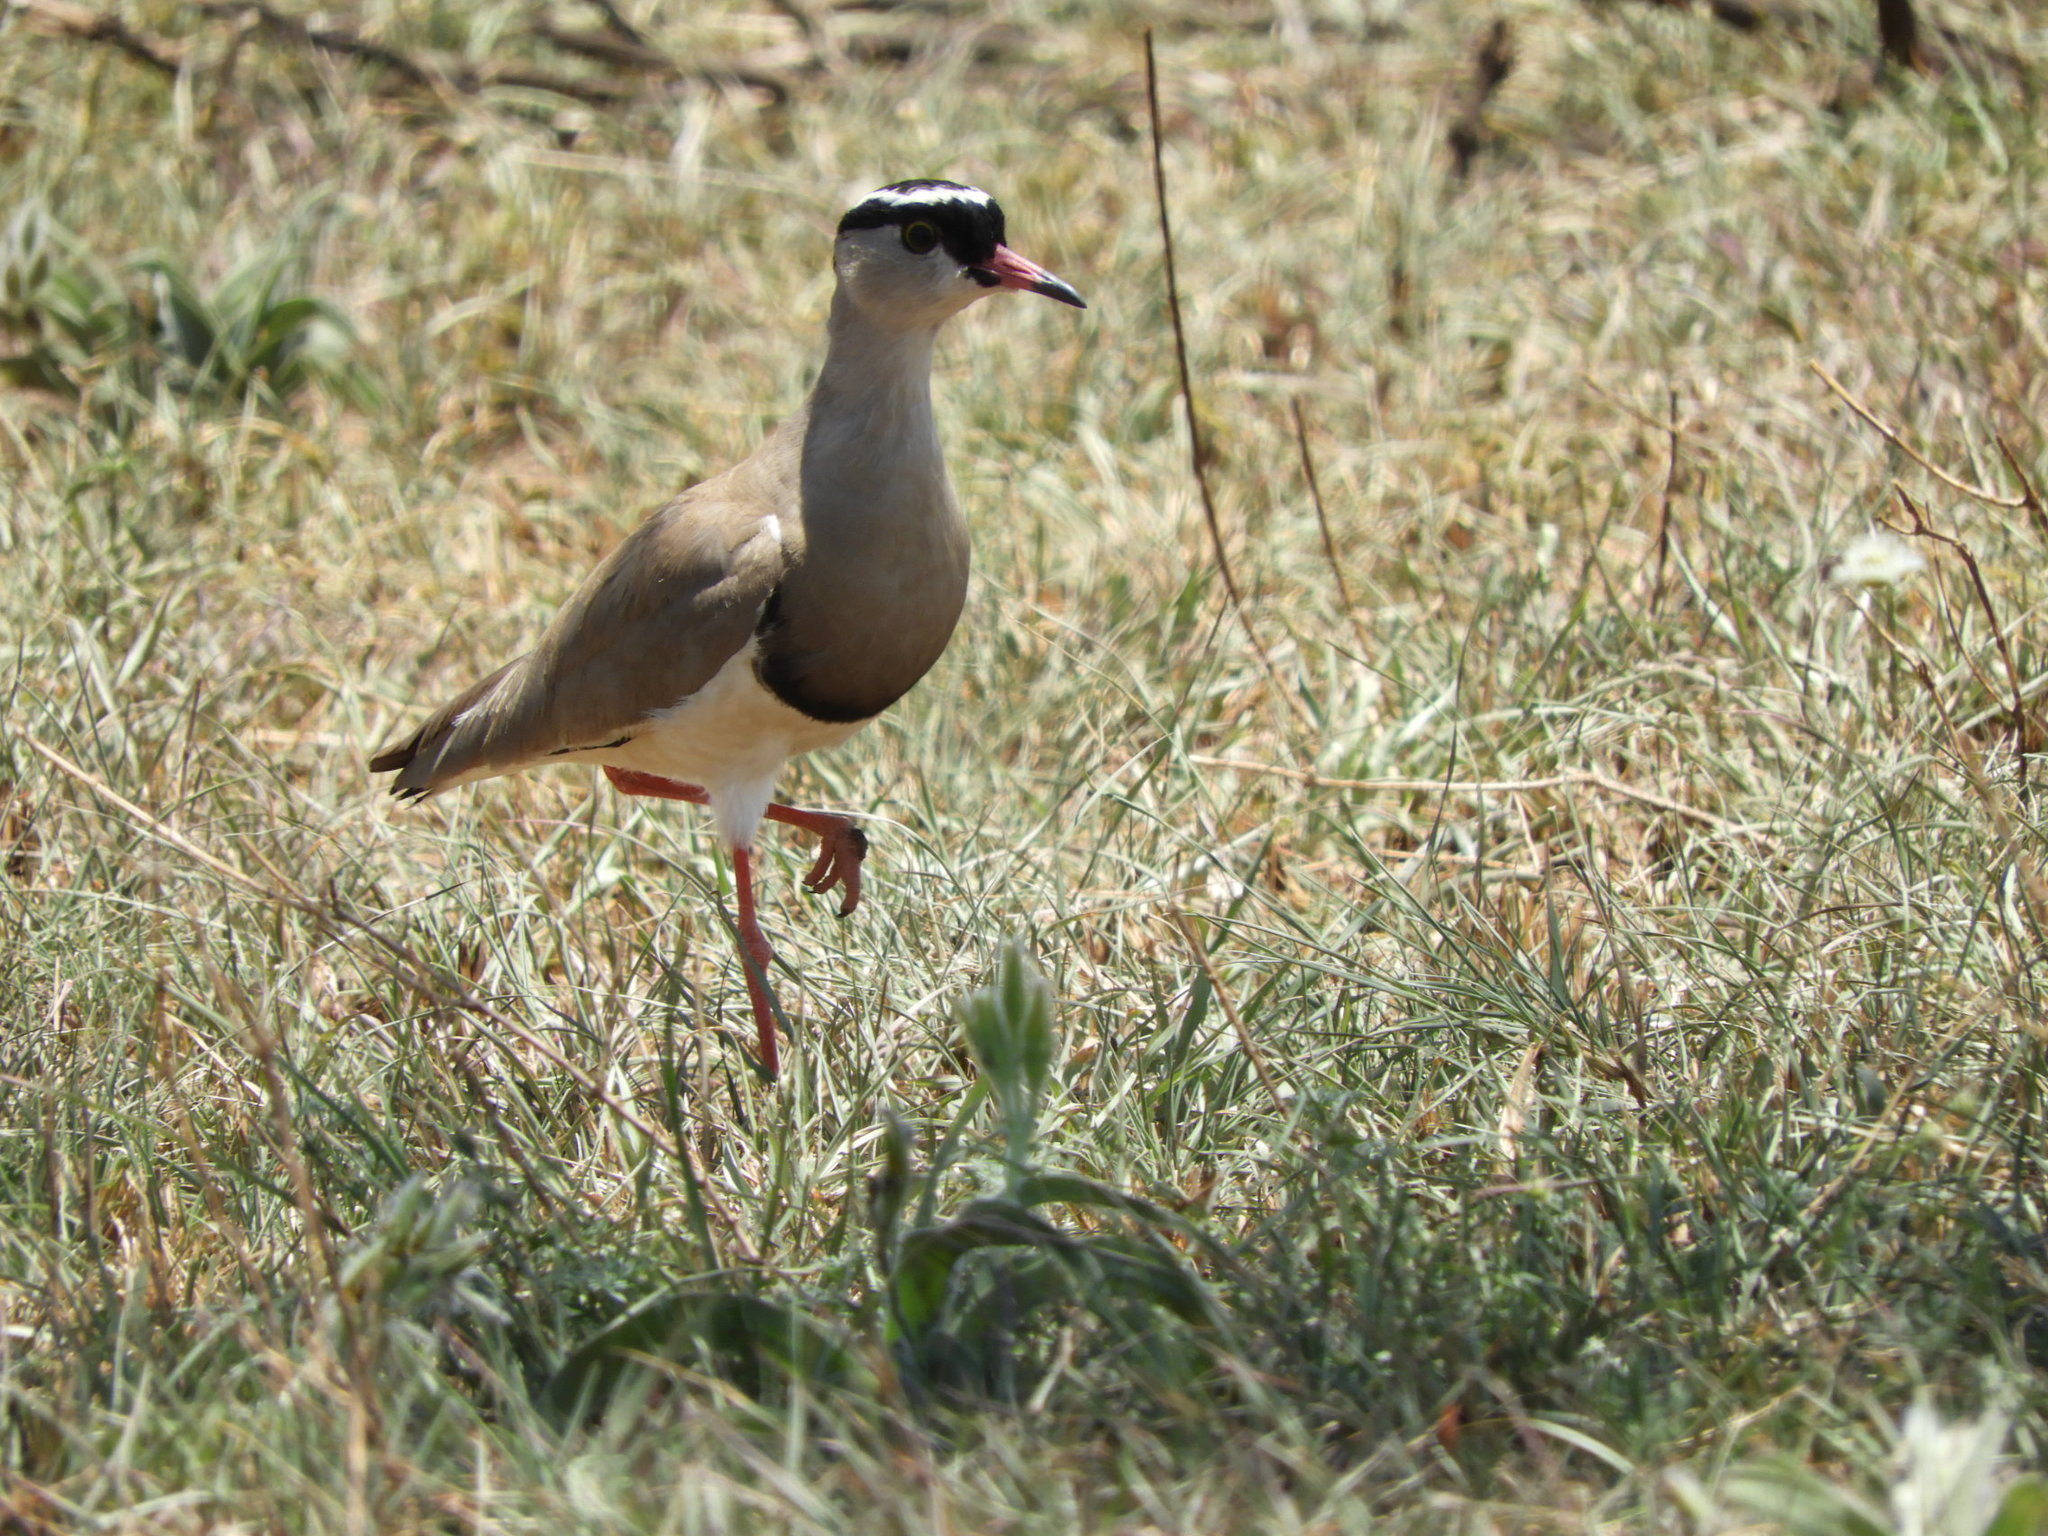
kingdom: Animalia
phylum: Chordata
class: Aves
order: Charadriiformes
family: Charadriidae
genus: Vanellus
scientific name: Vanellus coronatus
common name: Crowned lapwing
